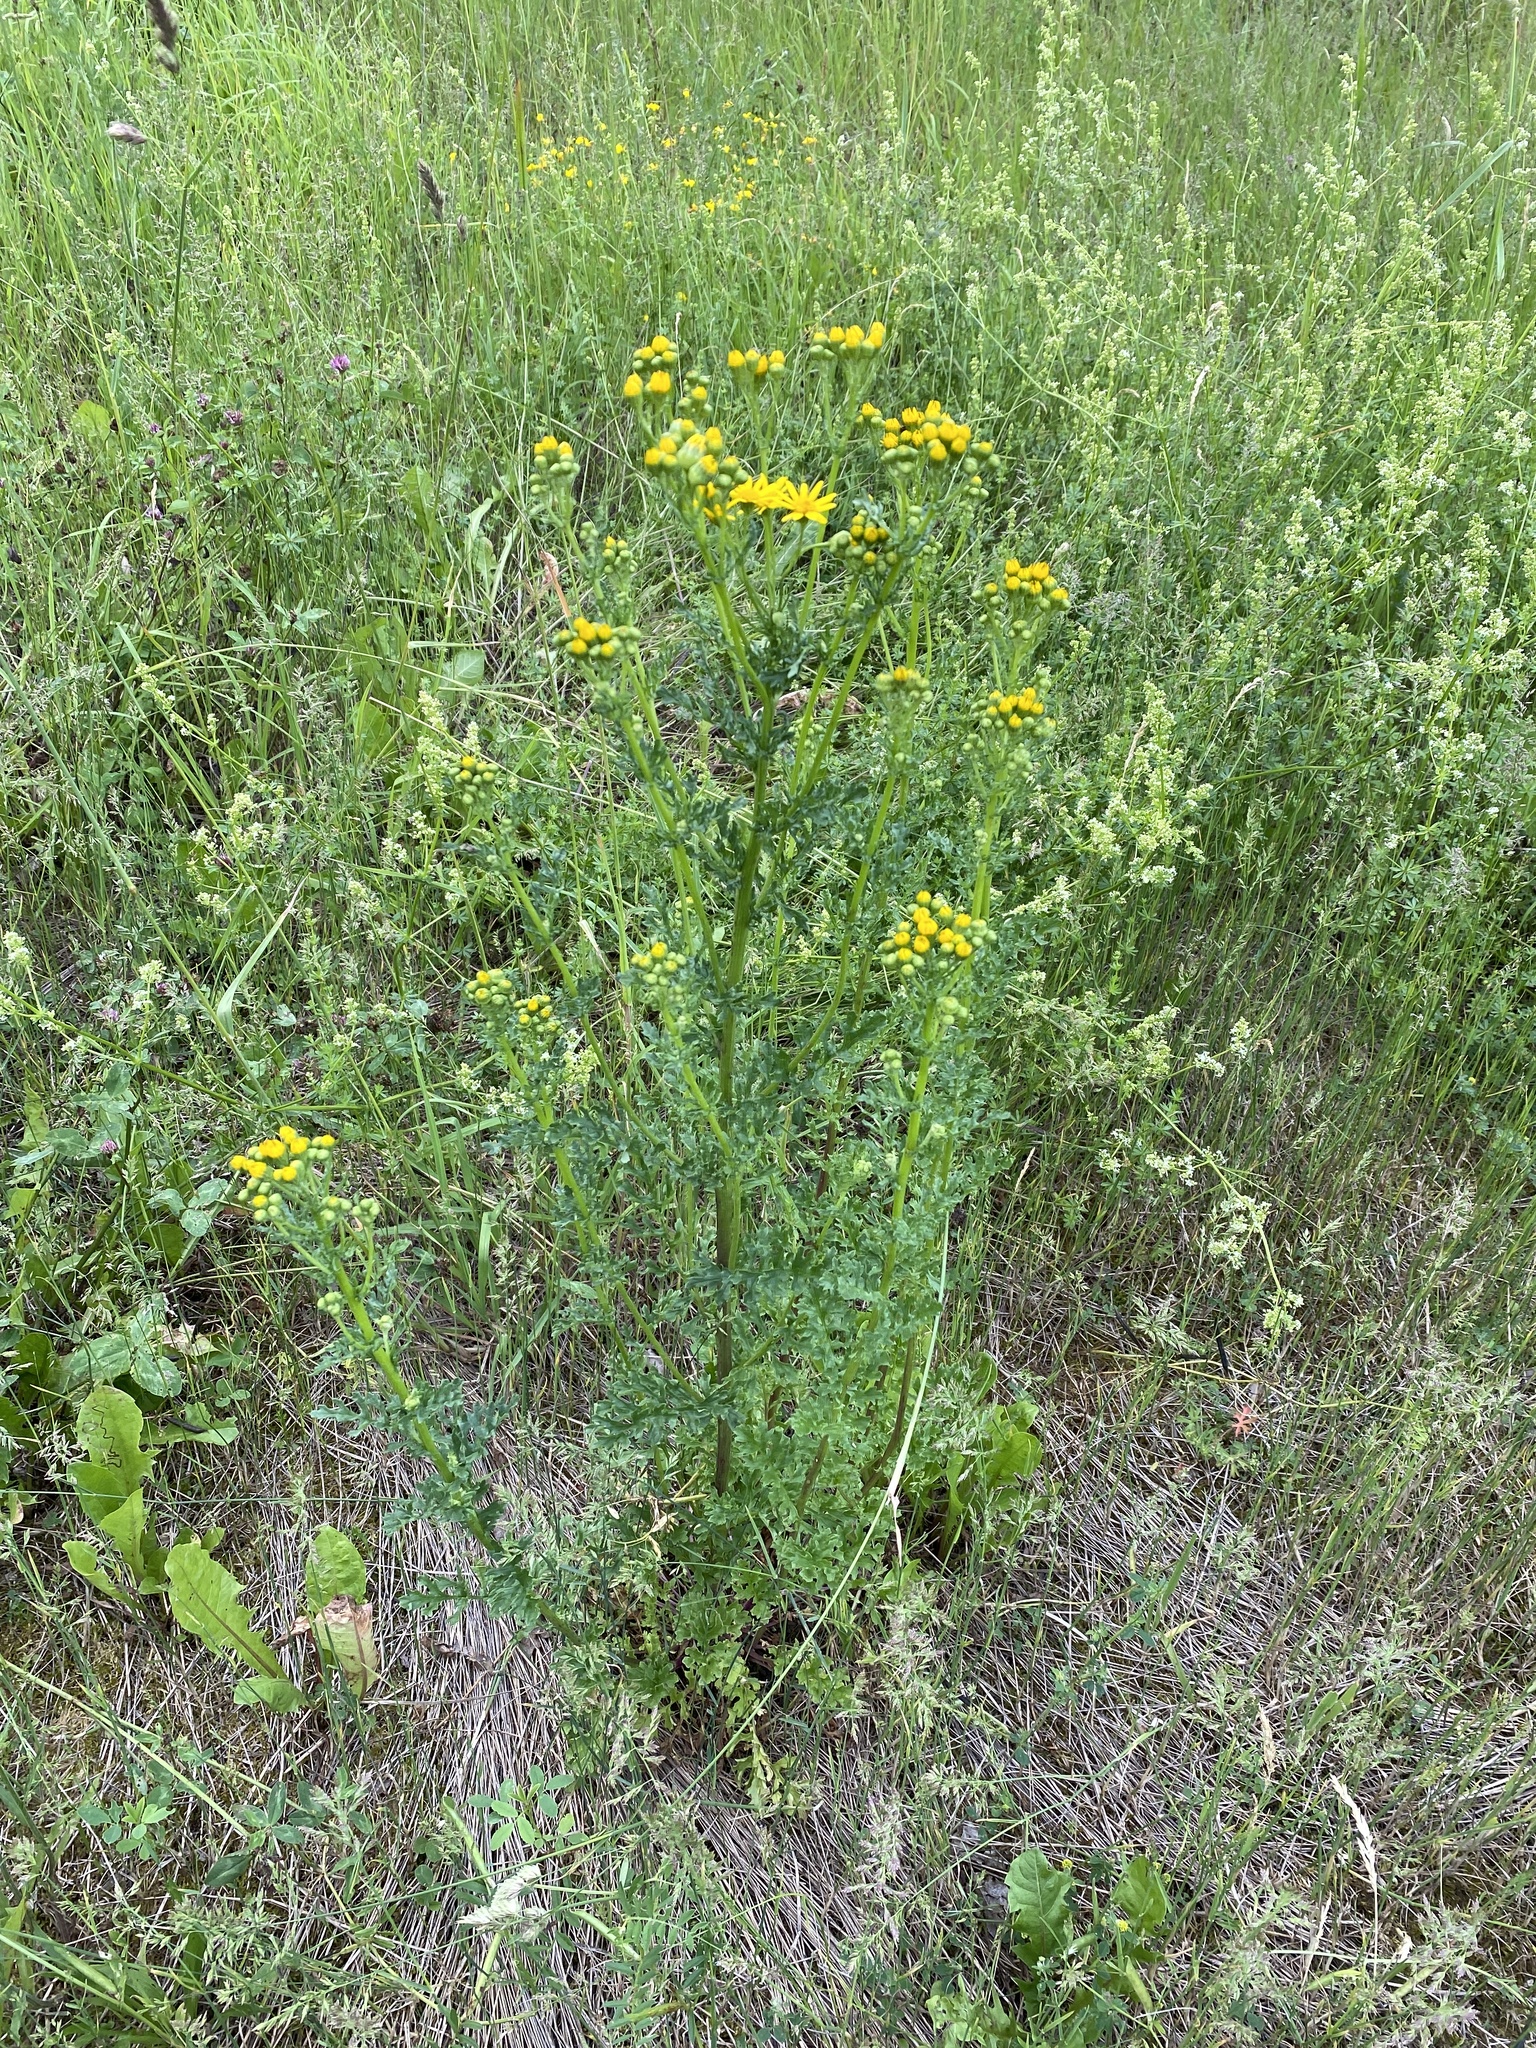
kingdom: Plantae
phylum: Tracheophyta
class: Magnoliopsida
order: Asterales
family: Asteraceae
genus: Jacobaea
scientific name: Jacobaea vulgaris
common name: Stinking willie
